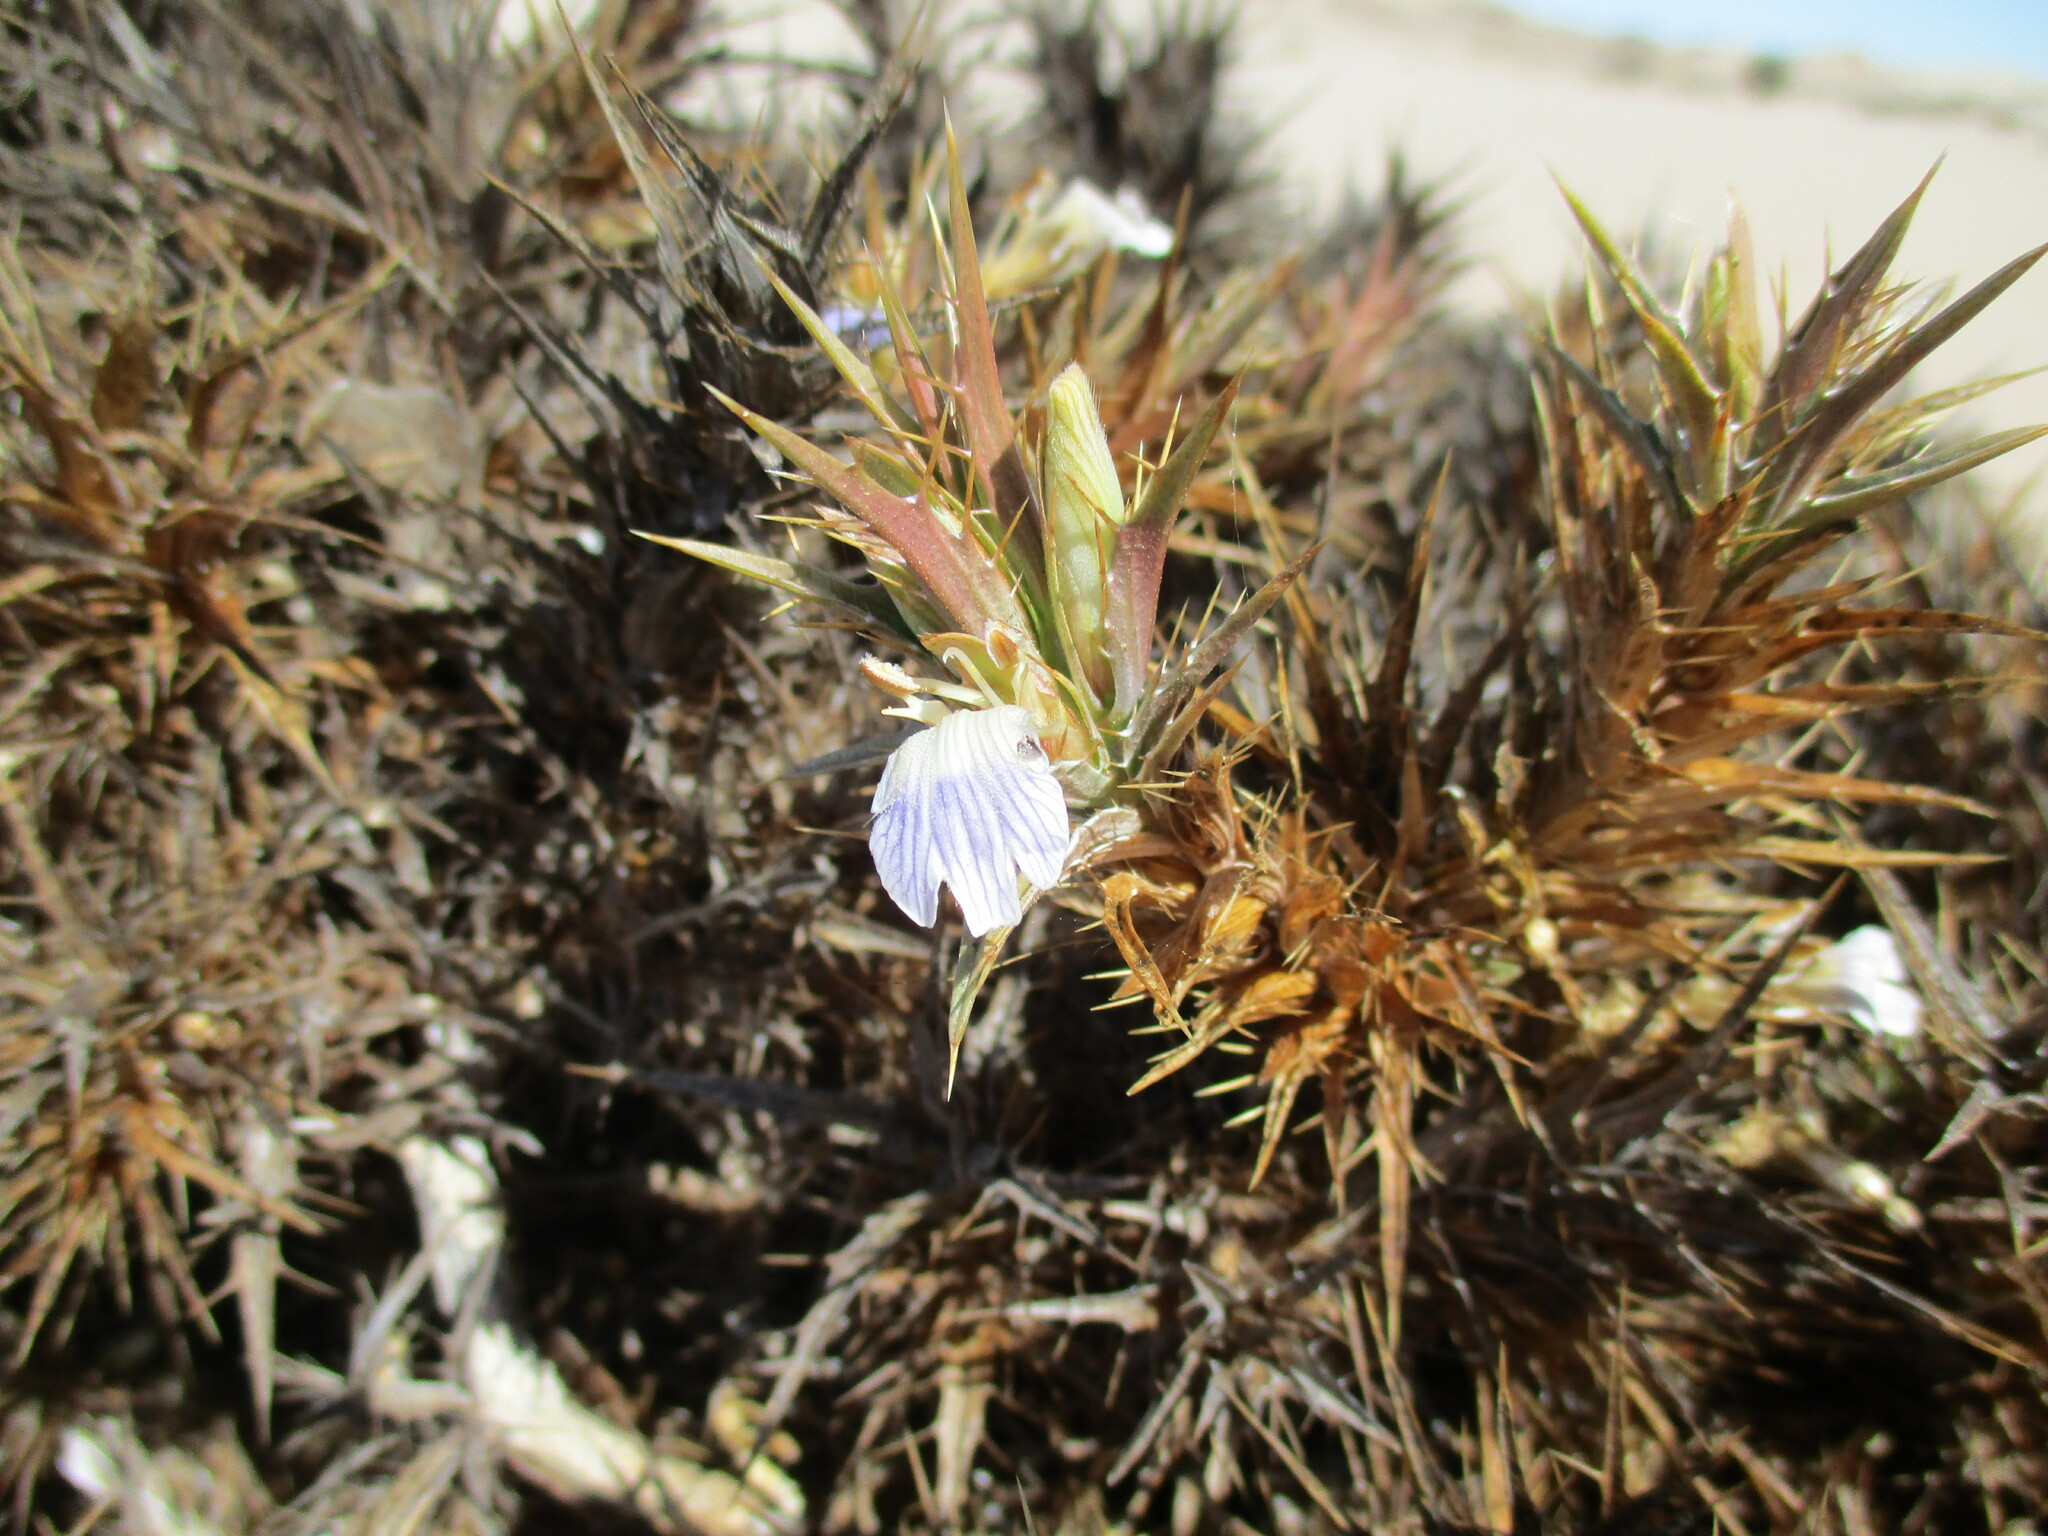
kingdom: Plantae
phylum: Tracheophyta
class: Magnoliopsida
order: Lamiales
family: Acanthaceae
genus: Blepharis
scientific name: Blepharis obmitrata
